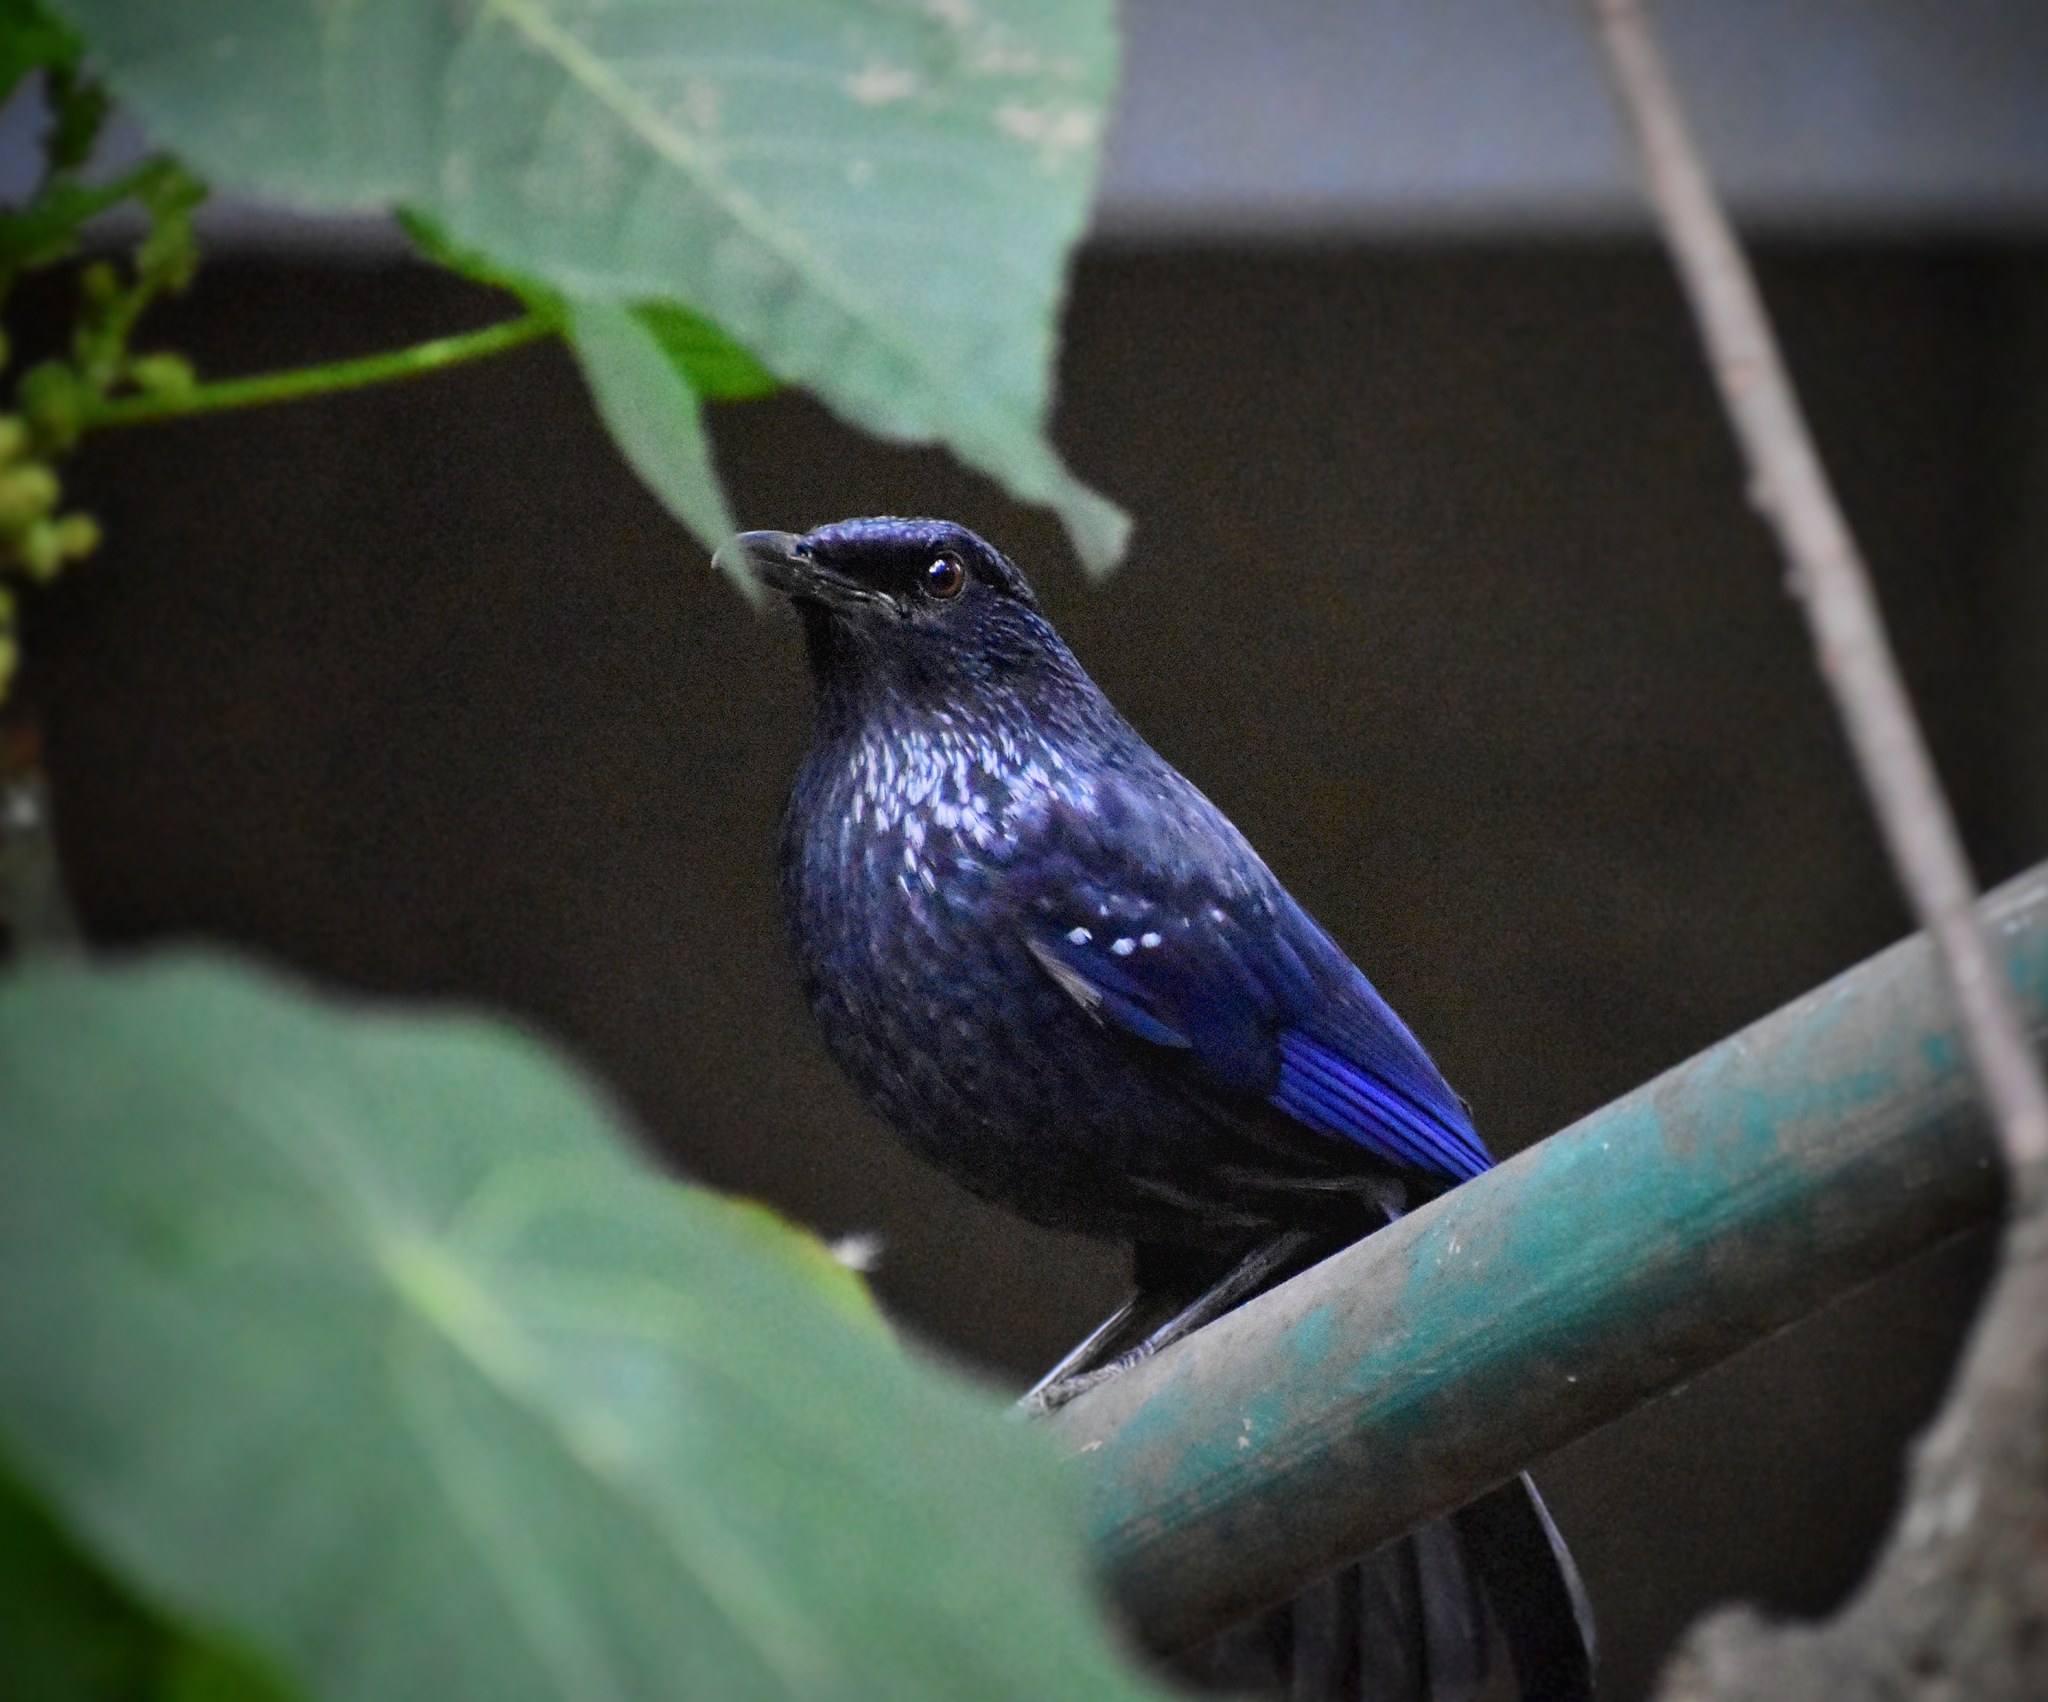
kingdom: Animalia
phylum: Chordata
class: Aves
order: Passeriformes
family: Muscicapidae
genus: Myophonus
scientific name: Myophonus caeruleus
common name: Blue whistling-thrush
